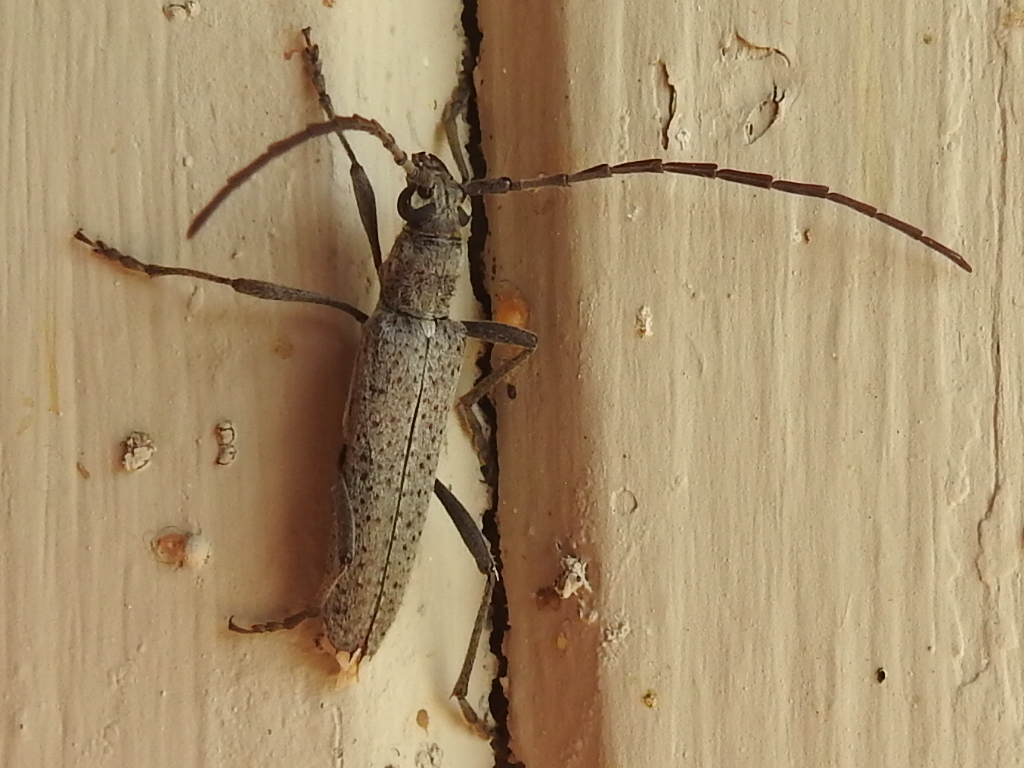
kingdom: Animalia
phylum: Arthropoda
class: Insecta
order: Coleoptera
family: Cerambycidae
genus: Aneflus
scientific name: Aneflus prolixus
